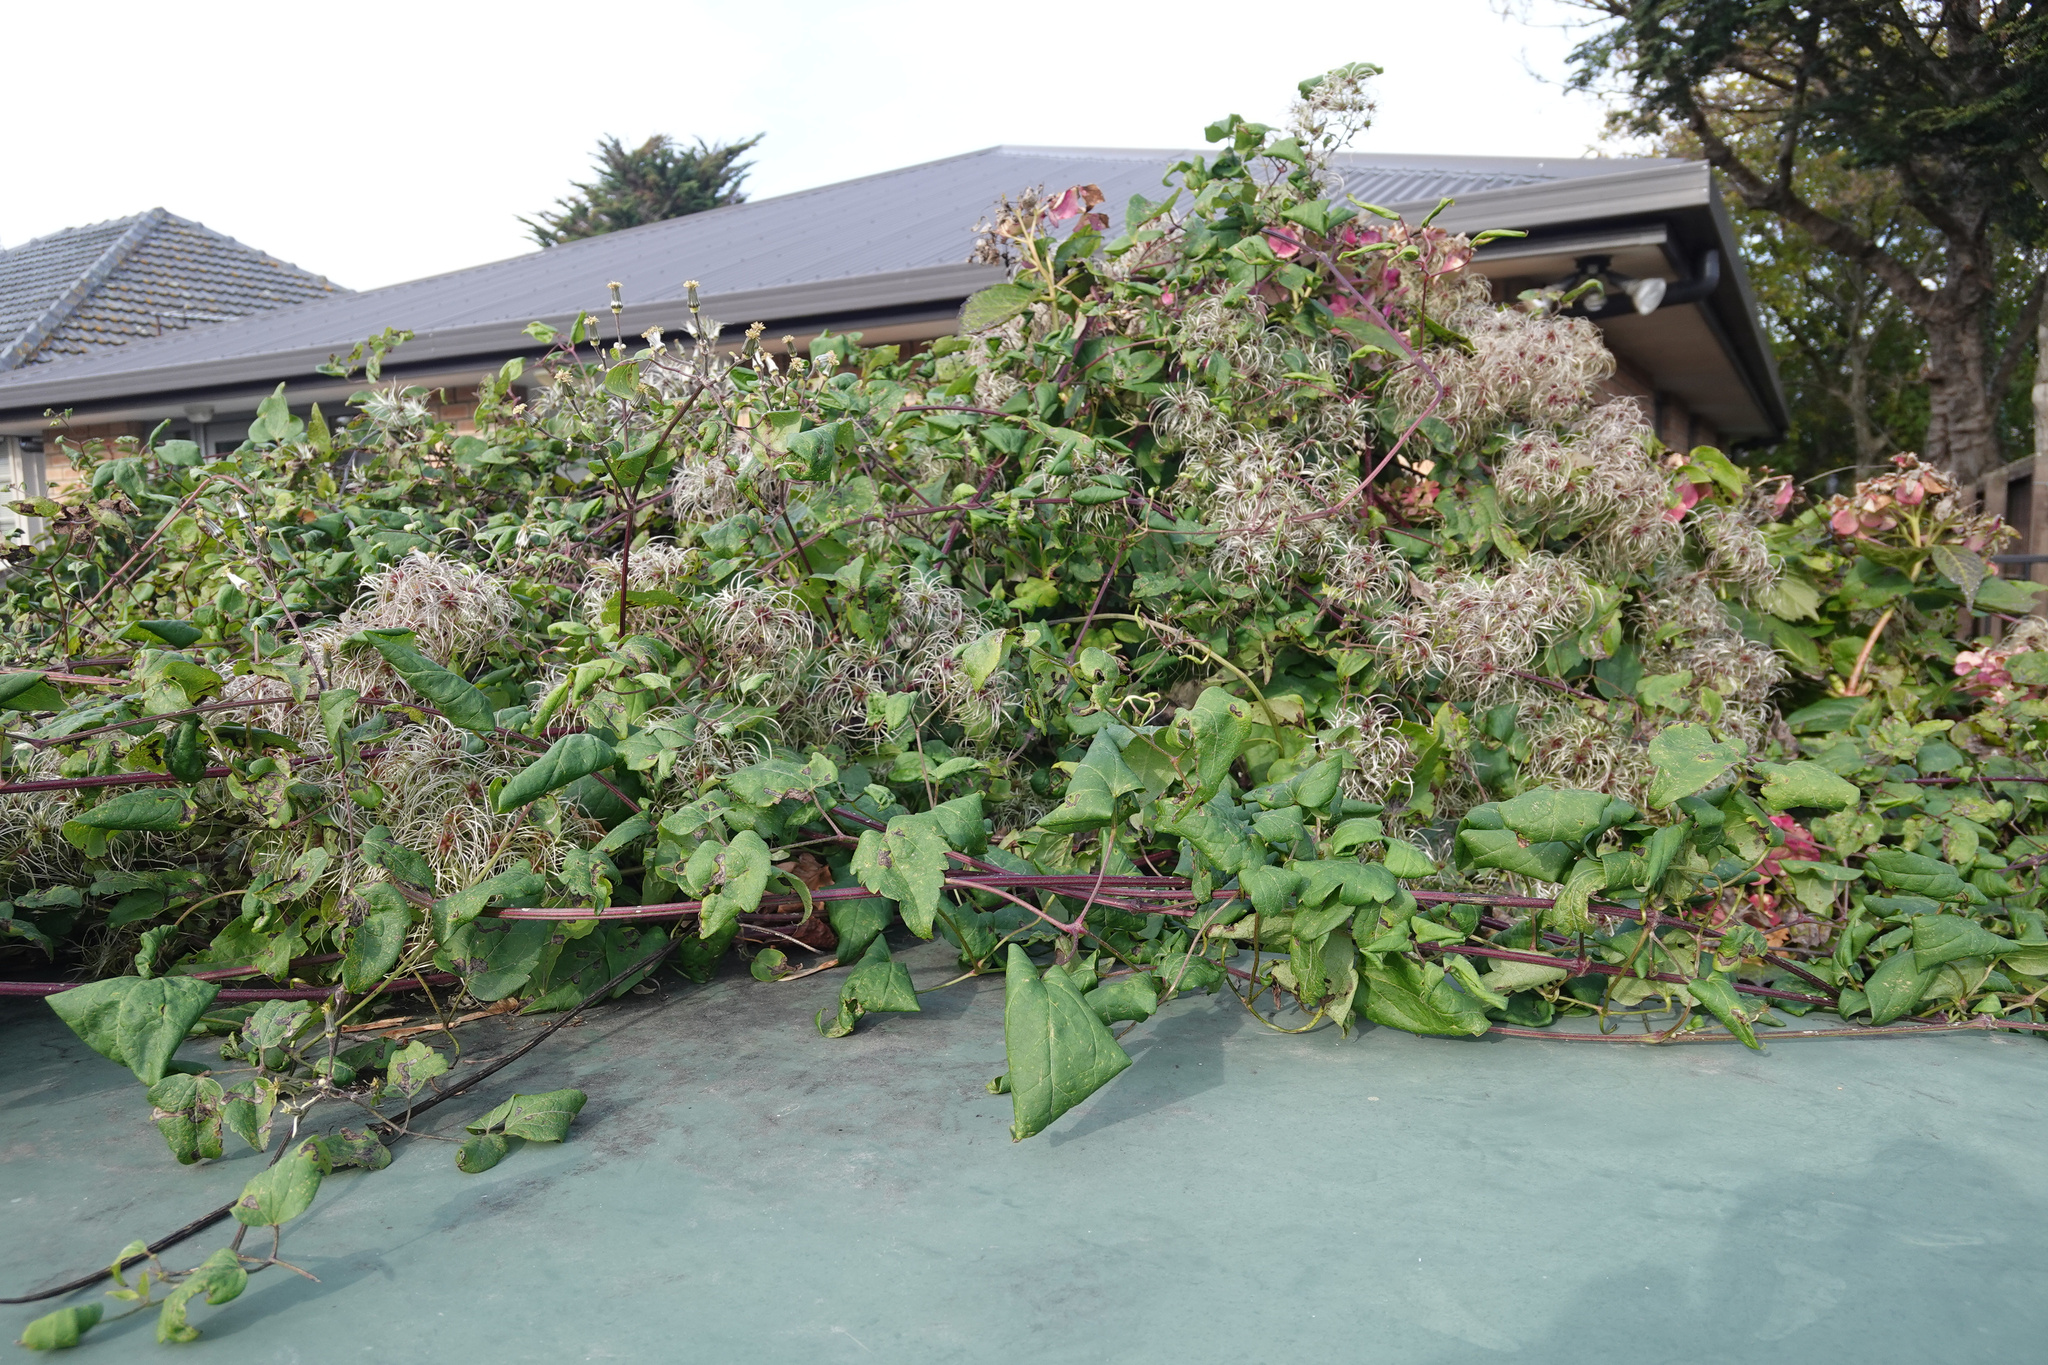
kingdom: Plantae
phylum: Tracheophyta
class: Magnoliopsida
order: Ranunculales
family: Ranunculaceae
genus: Clematis
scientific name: Clematis vitalba
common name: Evergreen clematis
